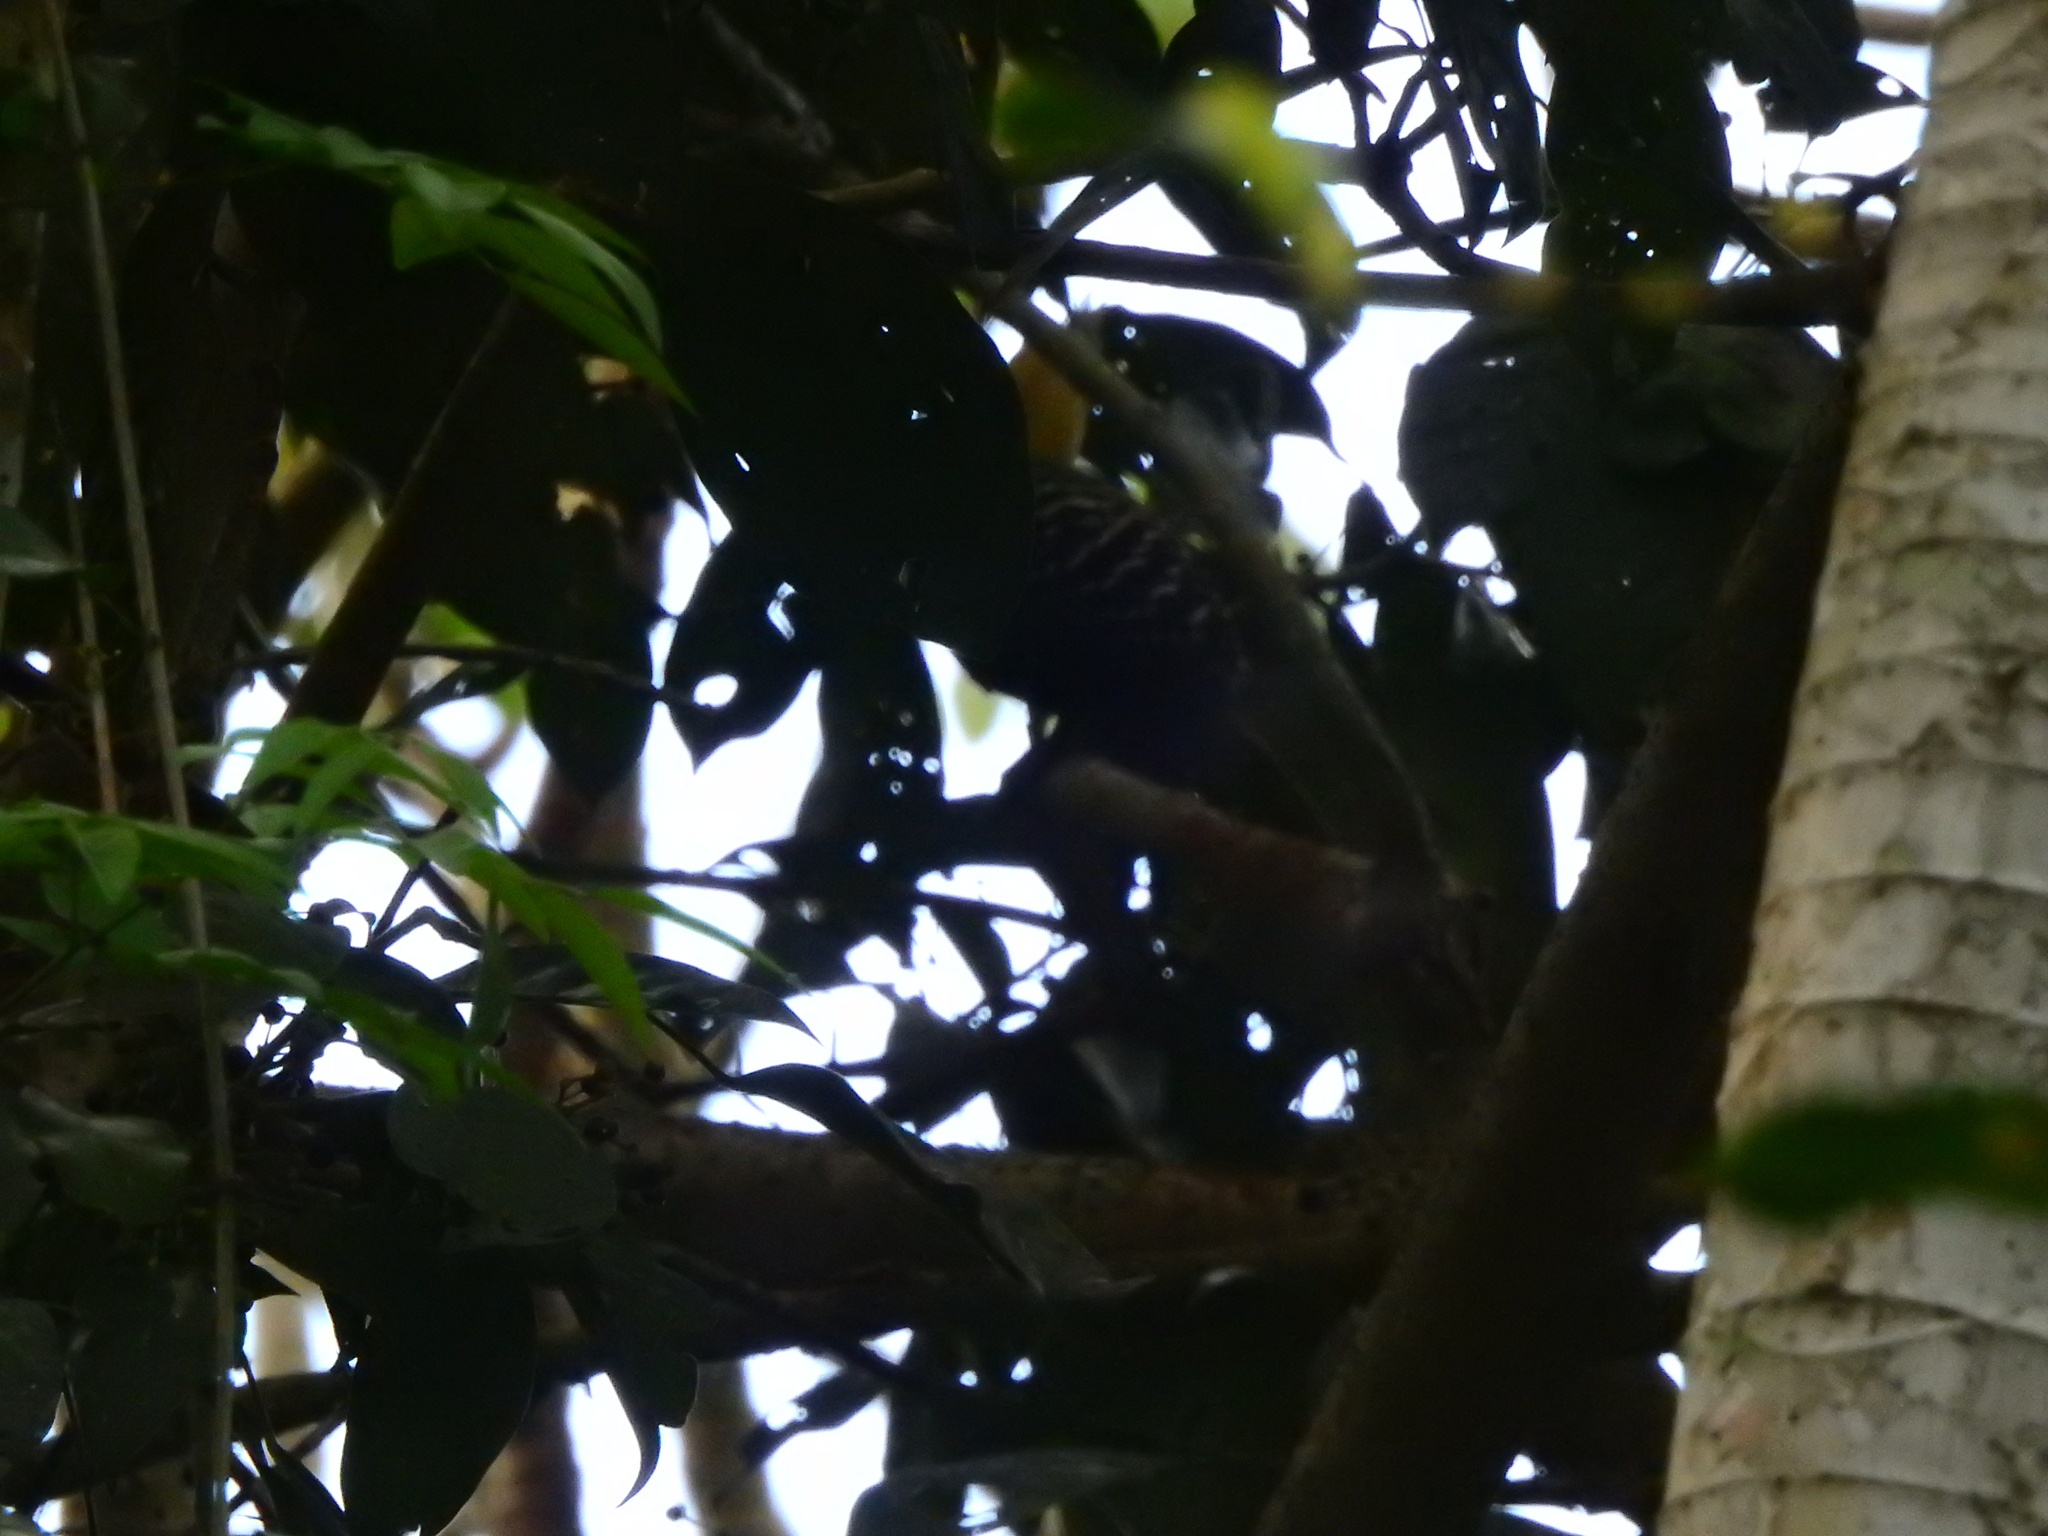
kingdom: Animalia
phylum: Chordata
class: Aves
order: Piciformes
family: Picidae
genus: Celeus
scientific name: Celeus flavescens
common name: Blond-crested woodpecker
